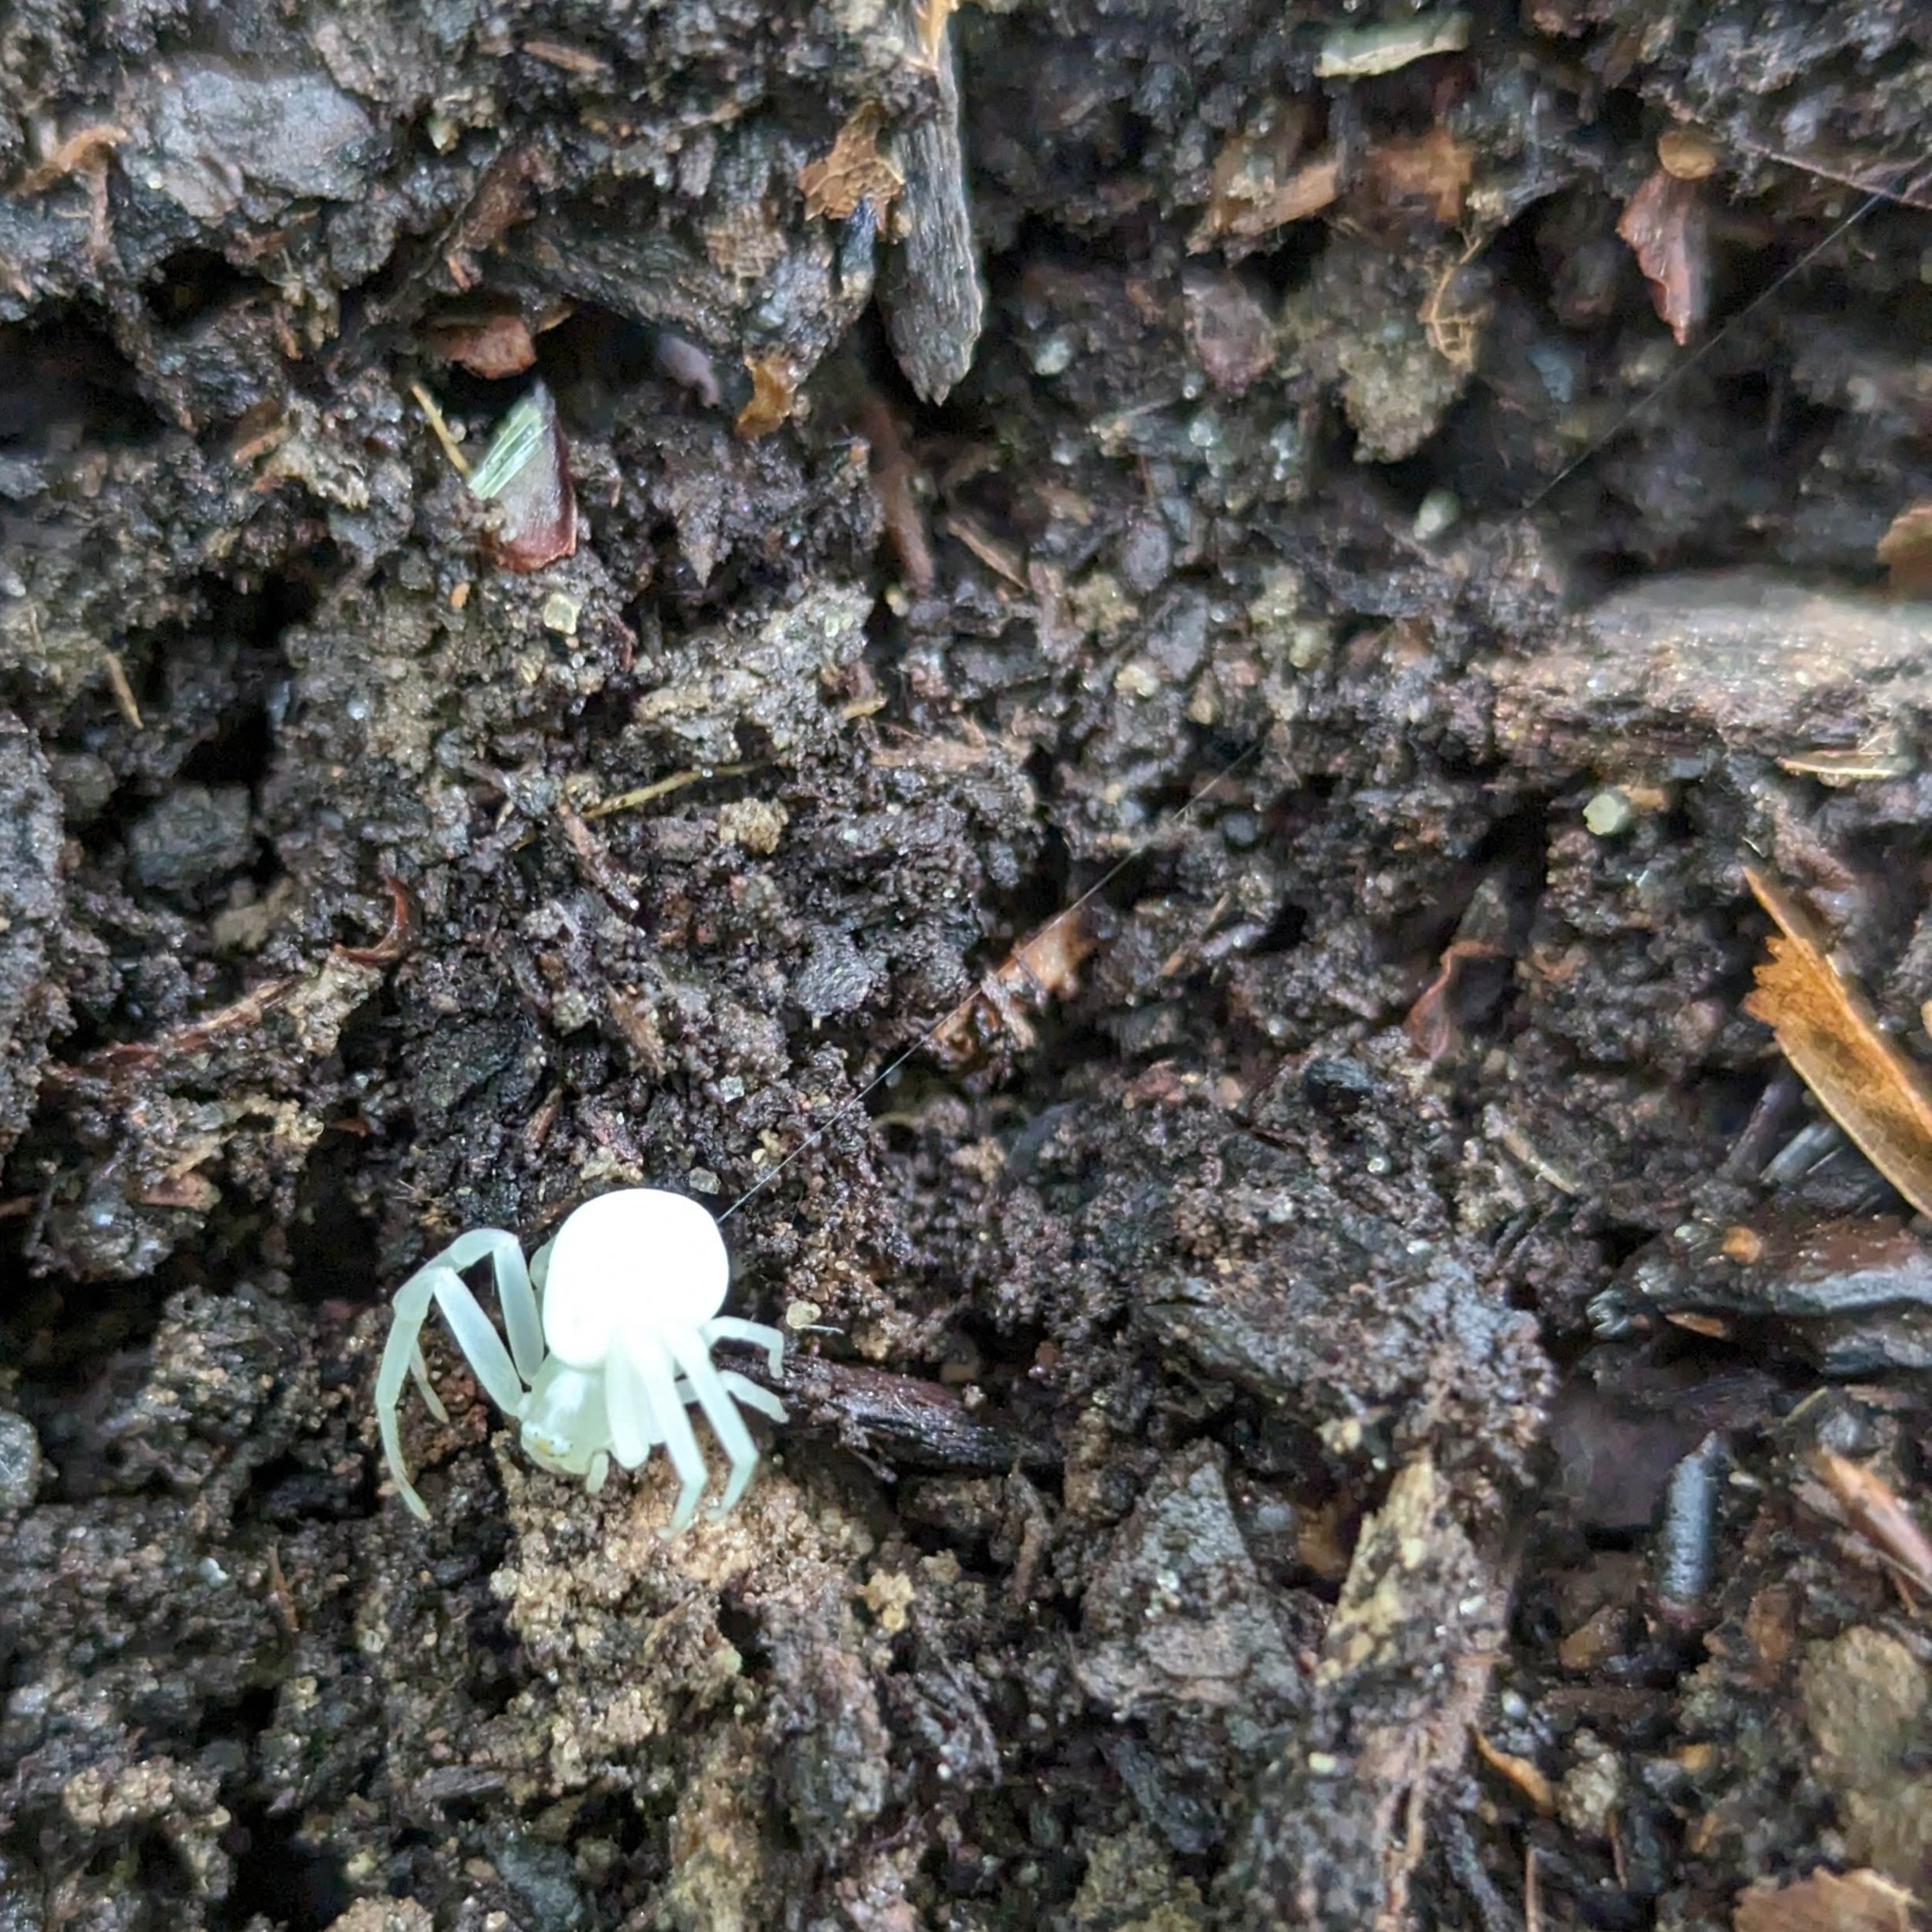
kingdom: Animalia
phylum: Arthropoda
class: Arachnida
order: Araneae
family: Thomisidae
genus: Misumena
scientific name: Misumena vatia
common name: Goldenrod crab spider
